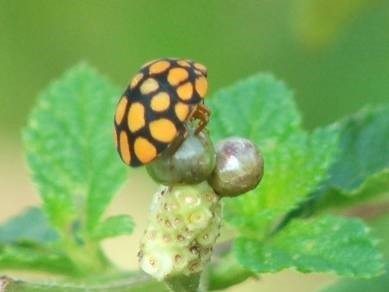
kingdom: Animalia
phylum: Arthropoda
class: Insecta
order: Hemiptera
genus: Steganocerus
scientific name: Steganocerus multipunctatus
